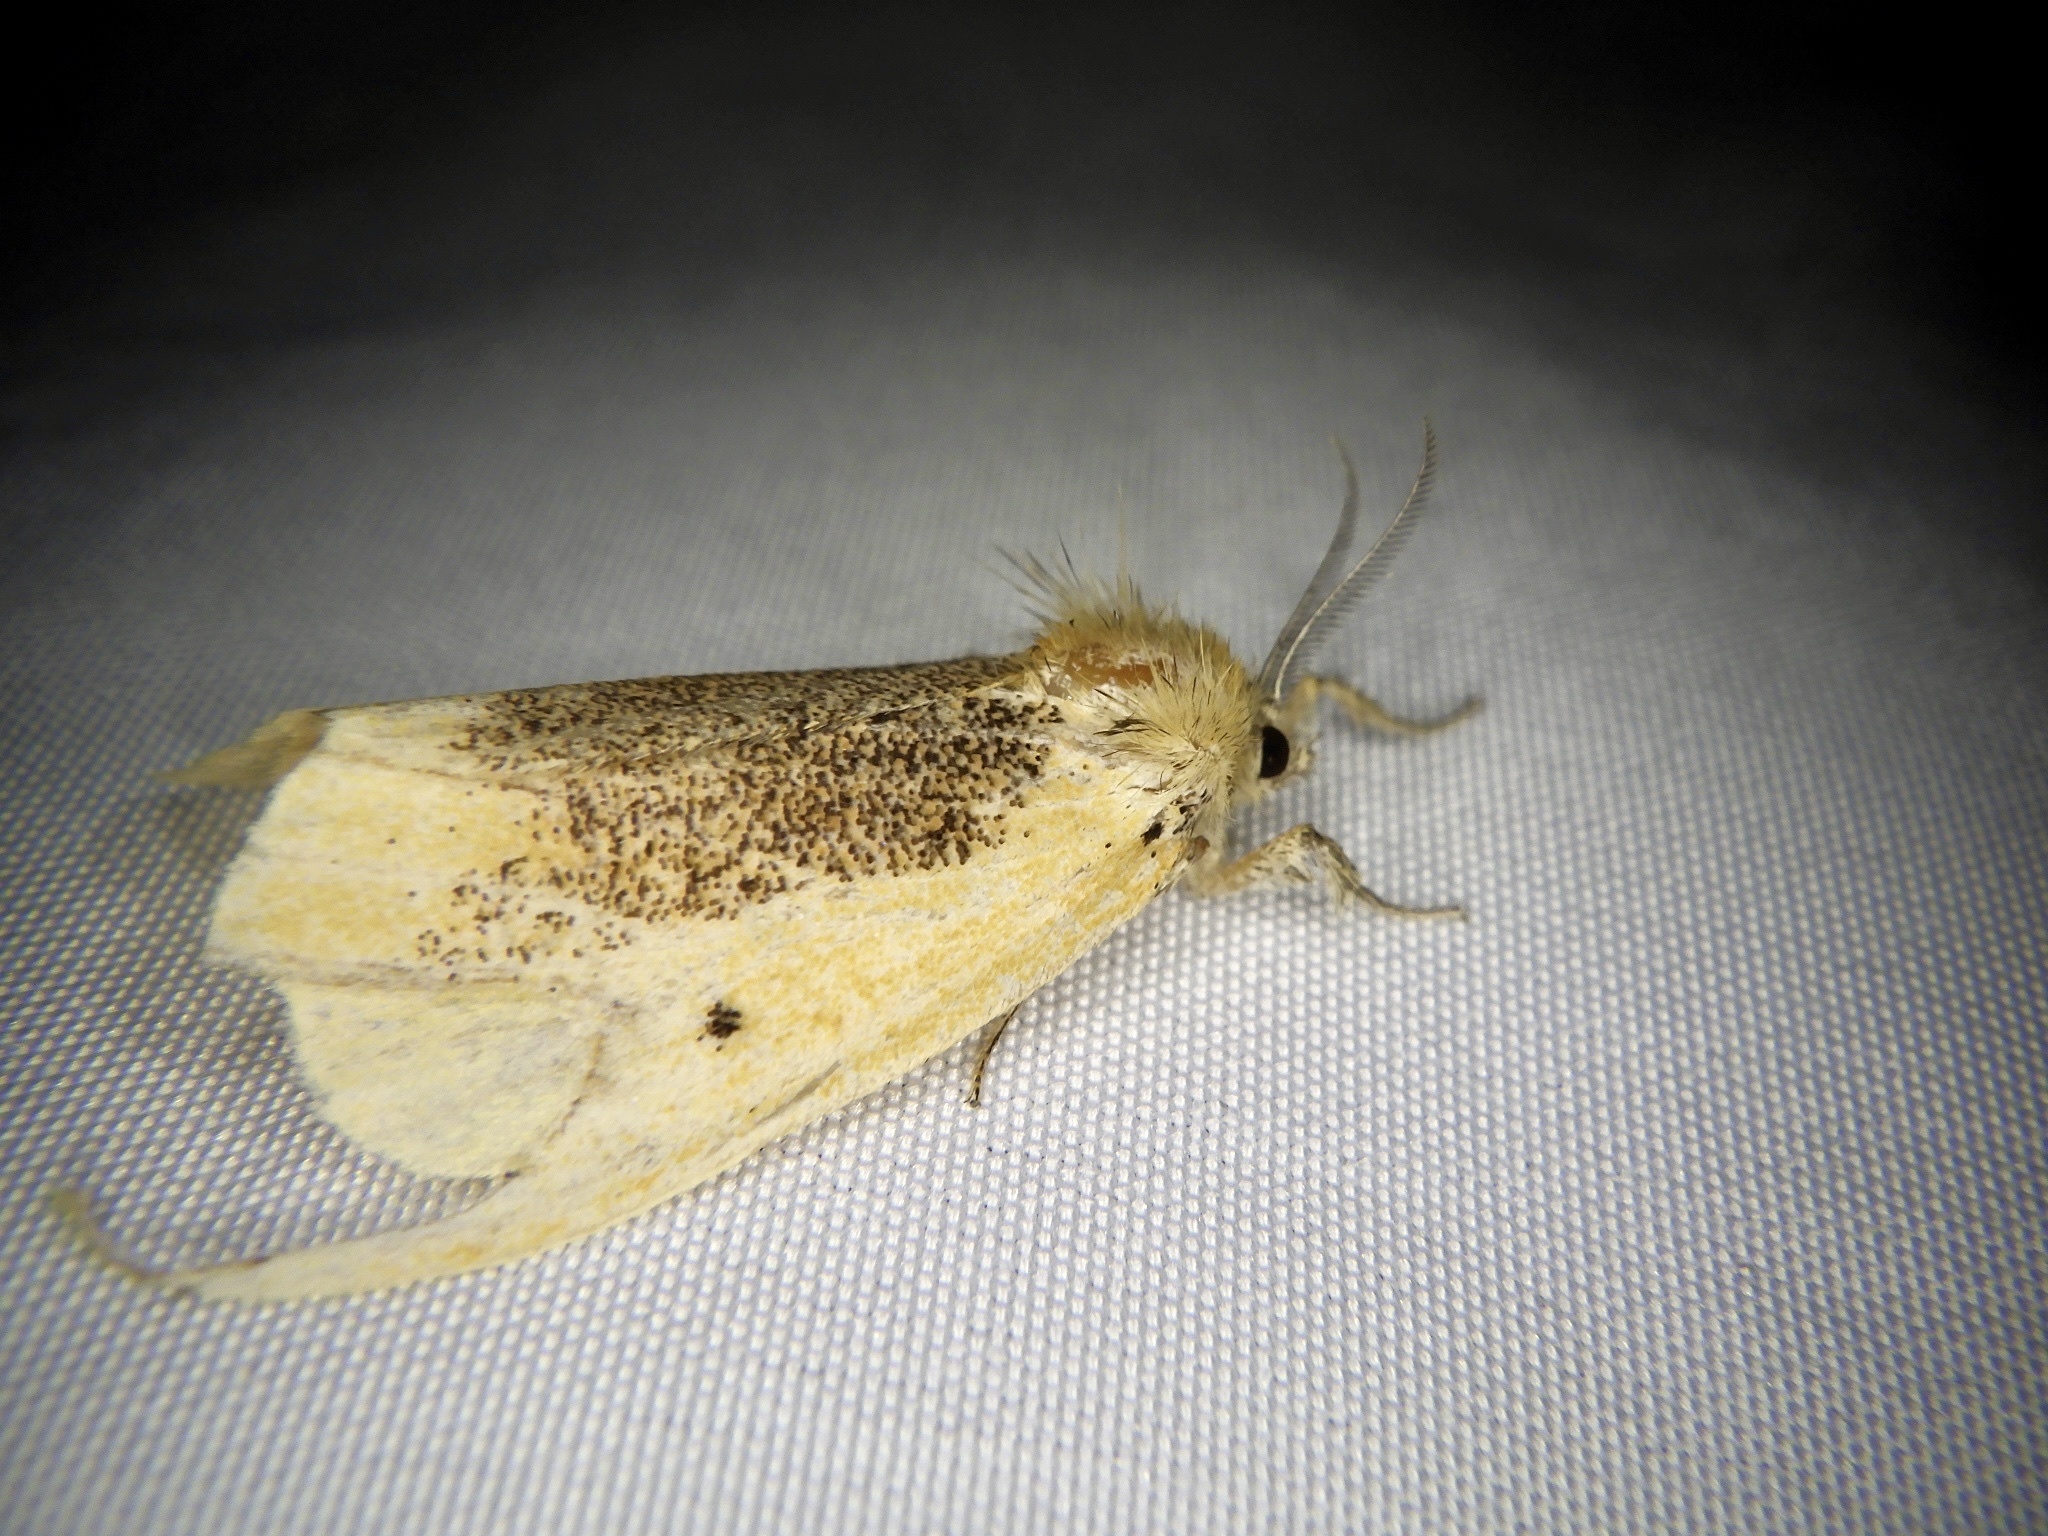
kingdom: Animalia
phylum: Arthropoda
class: Insecta
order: Lepidoptera
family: Erebidae
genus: Kuromondokuga
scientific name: Kuromondokuga niphonis
